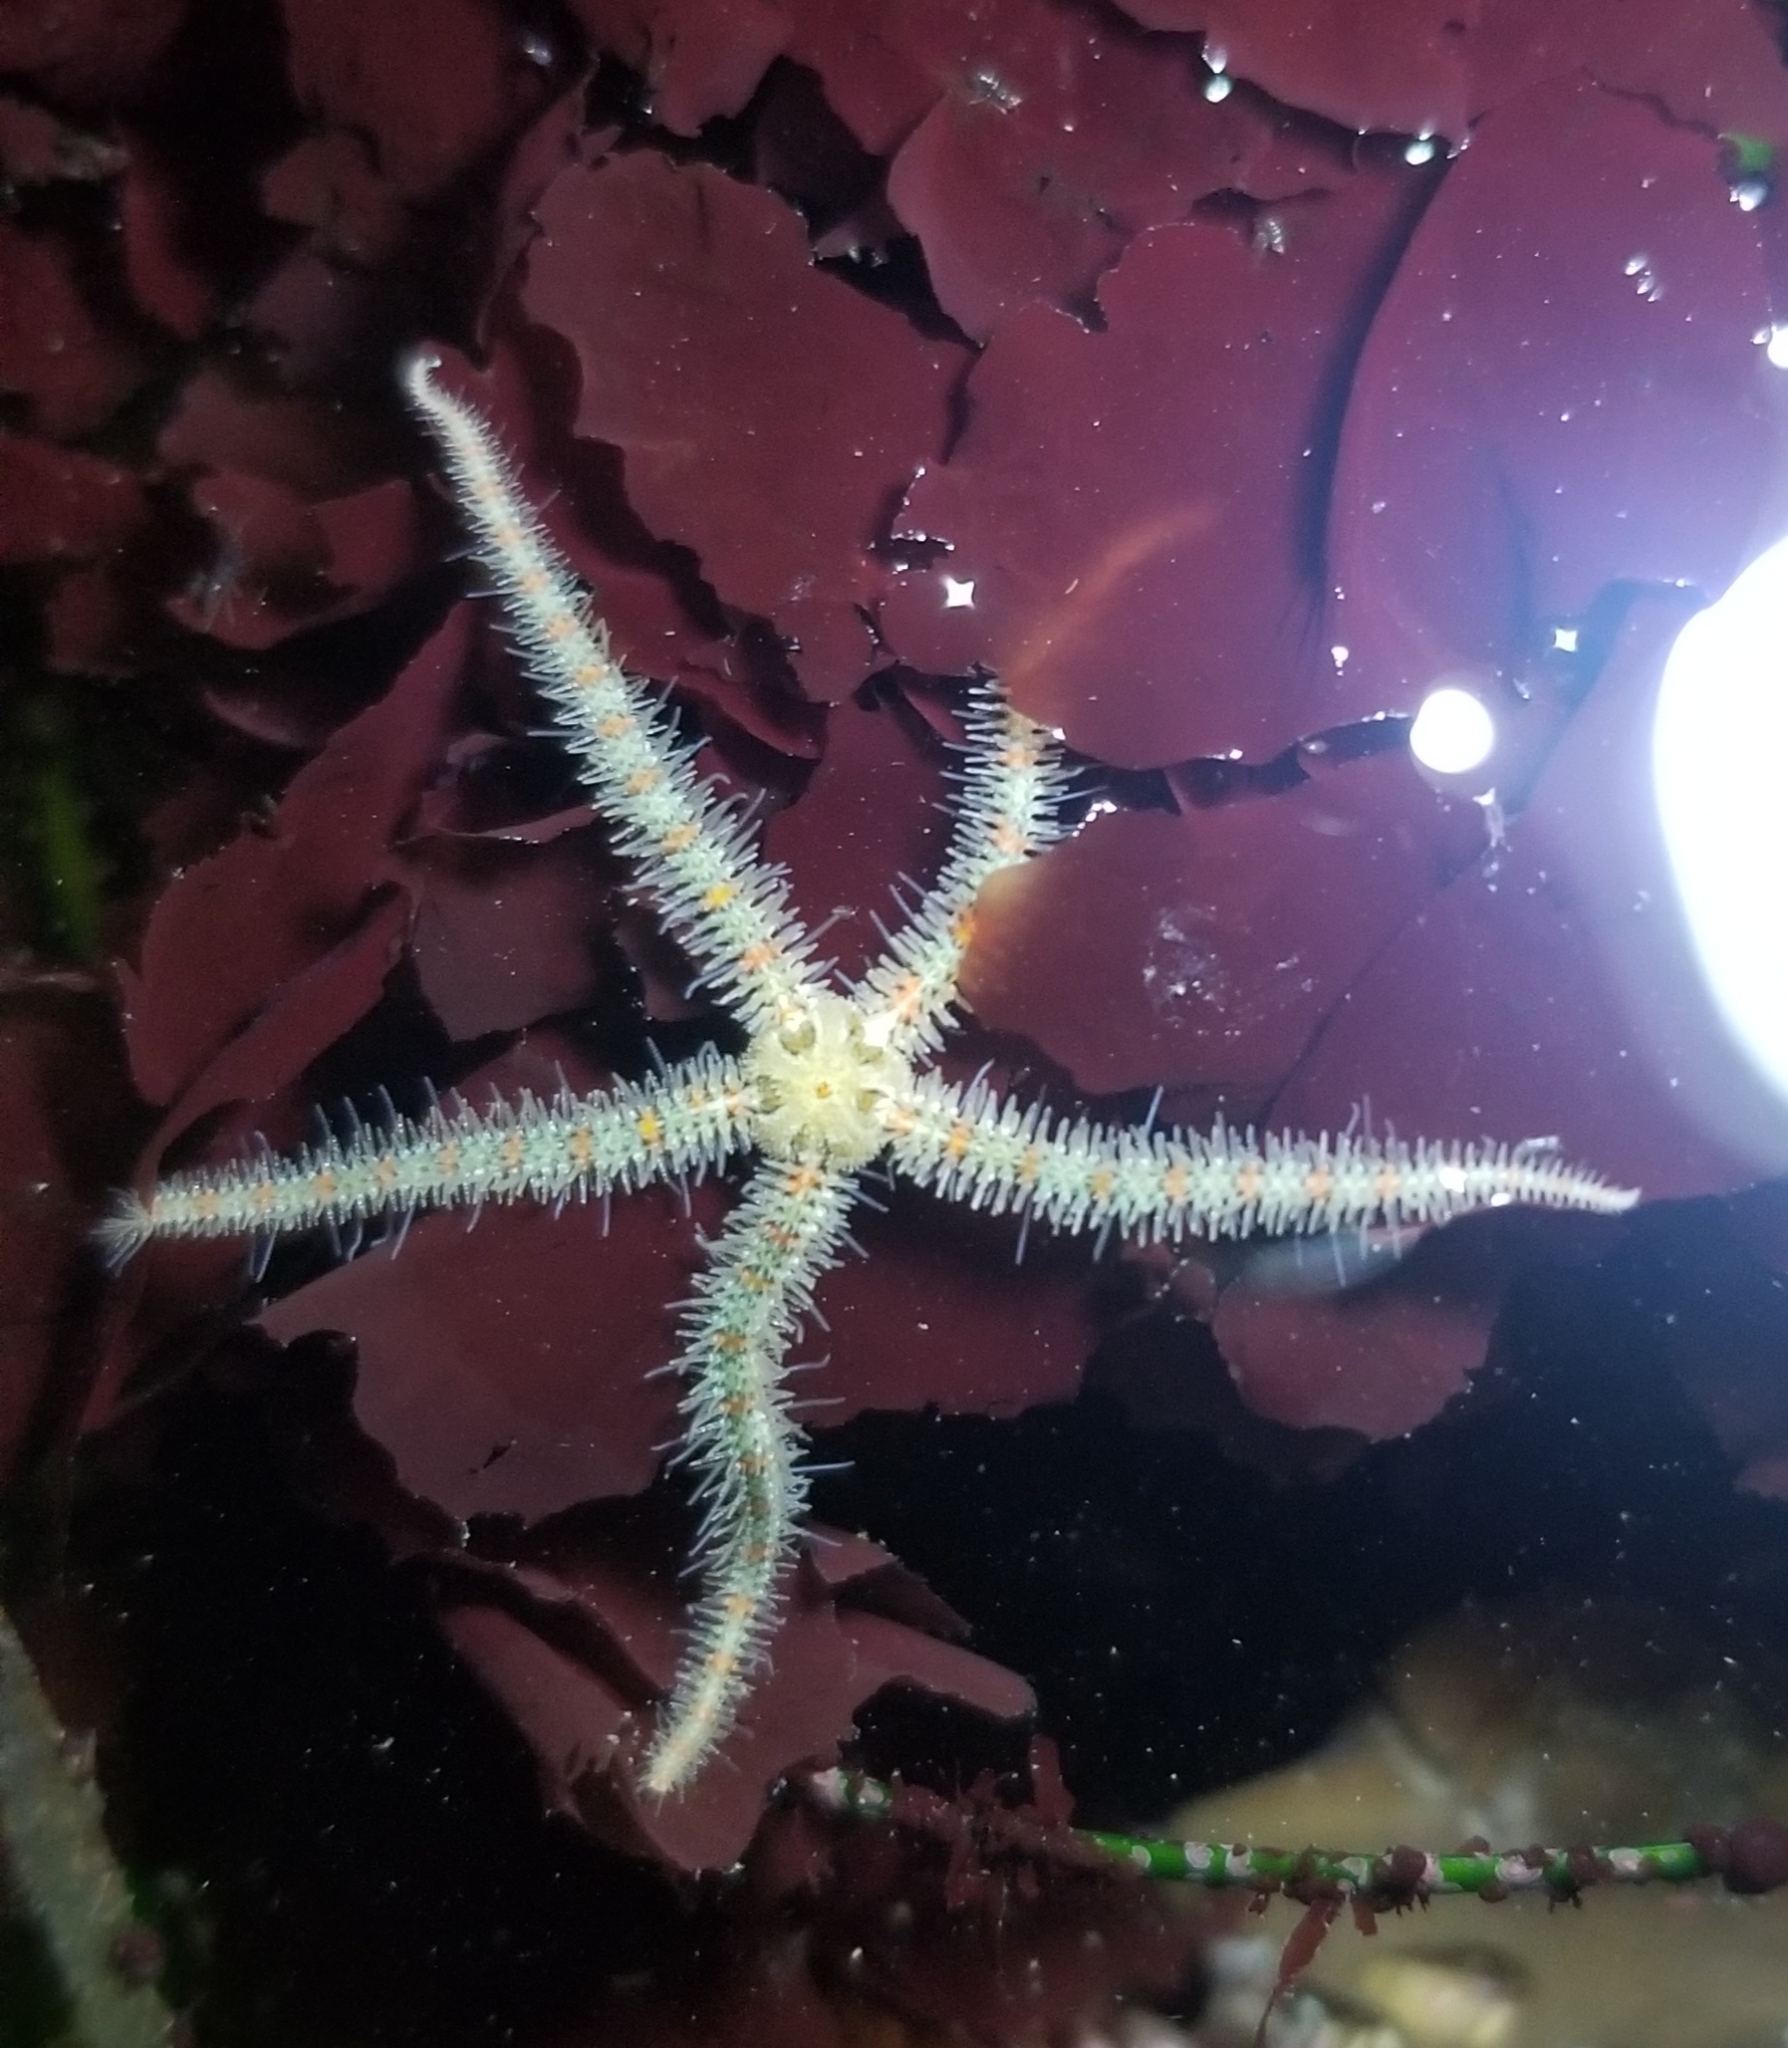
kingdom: Animalia
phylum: Echinodermata
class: Ophiuroidea
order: Amphilepidida
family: Ophiotrichidae
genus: Ophiothrix
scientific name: Ophiothrix spiculata
